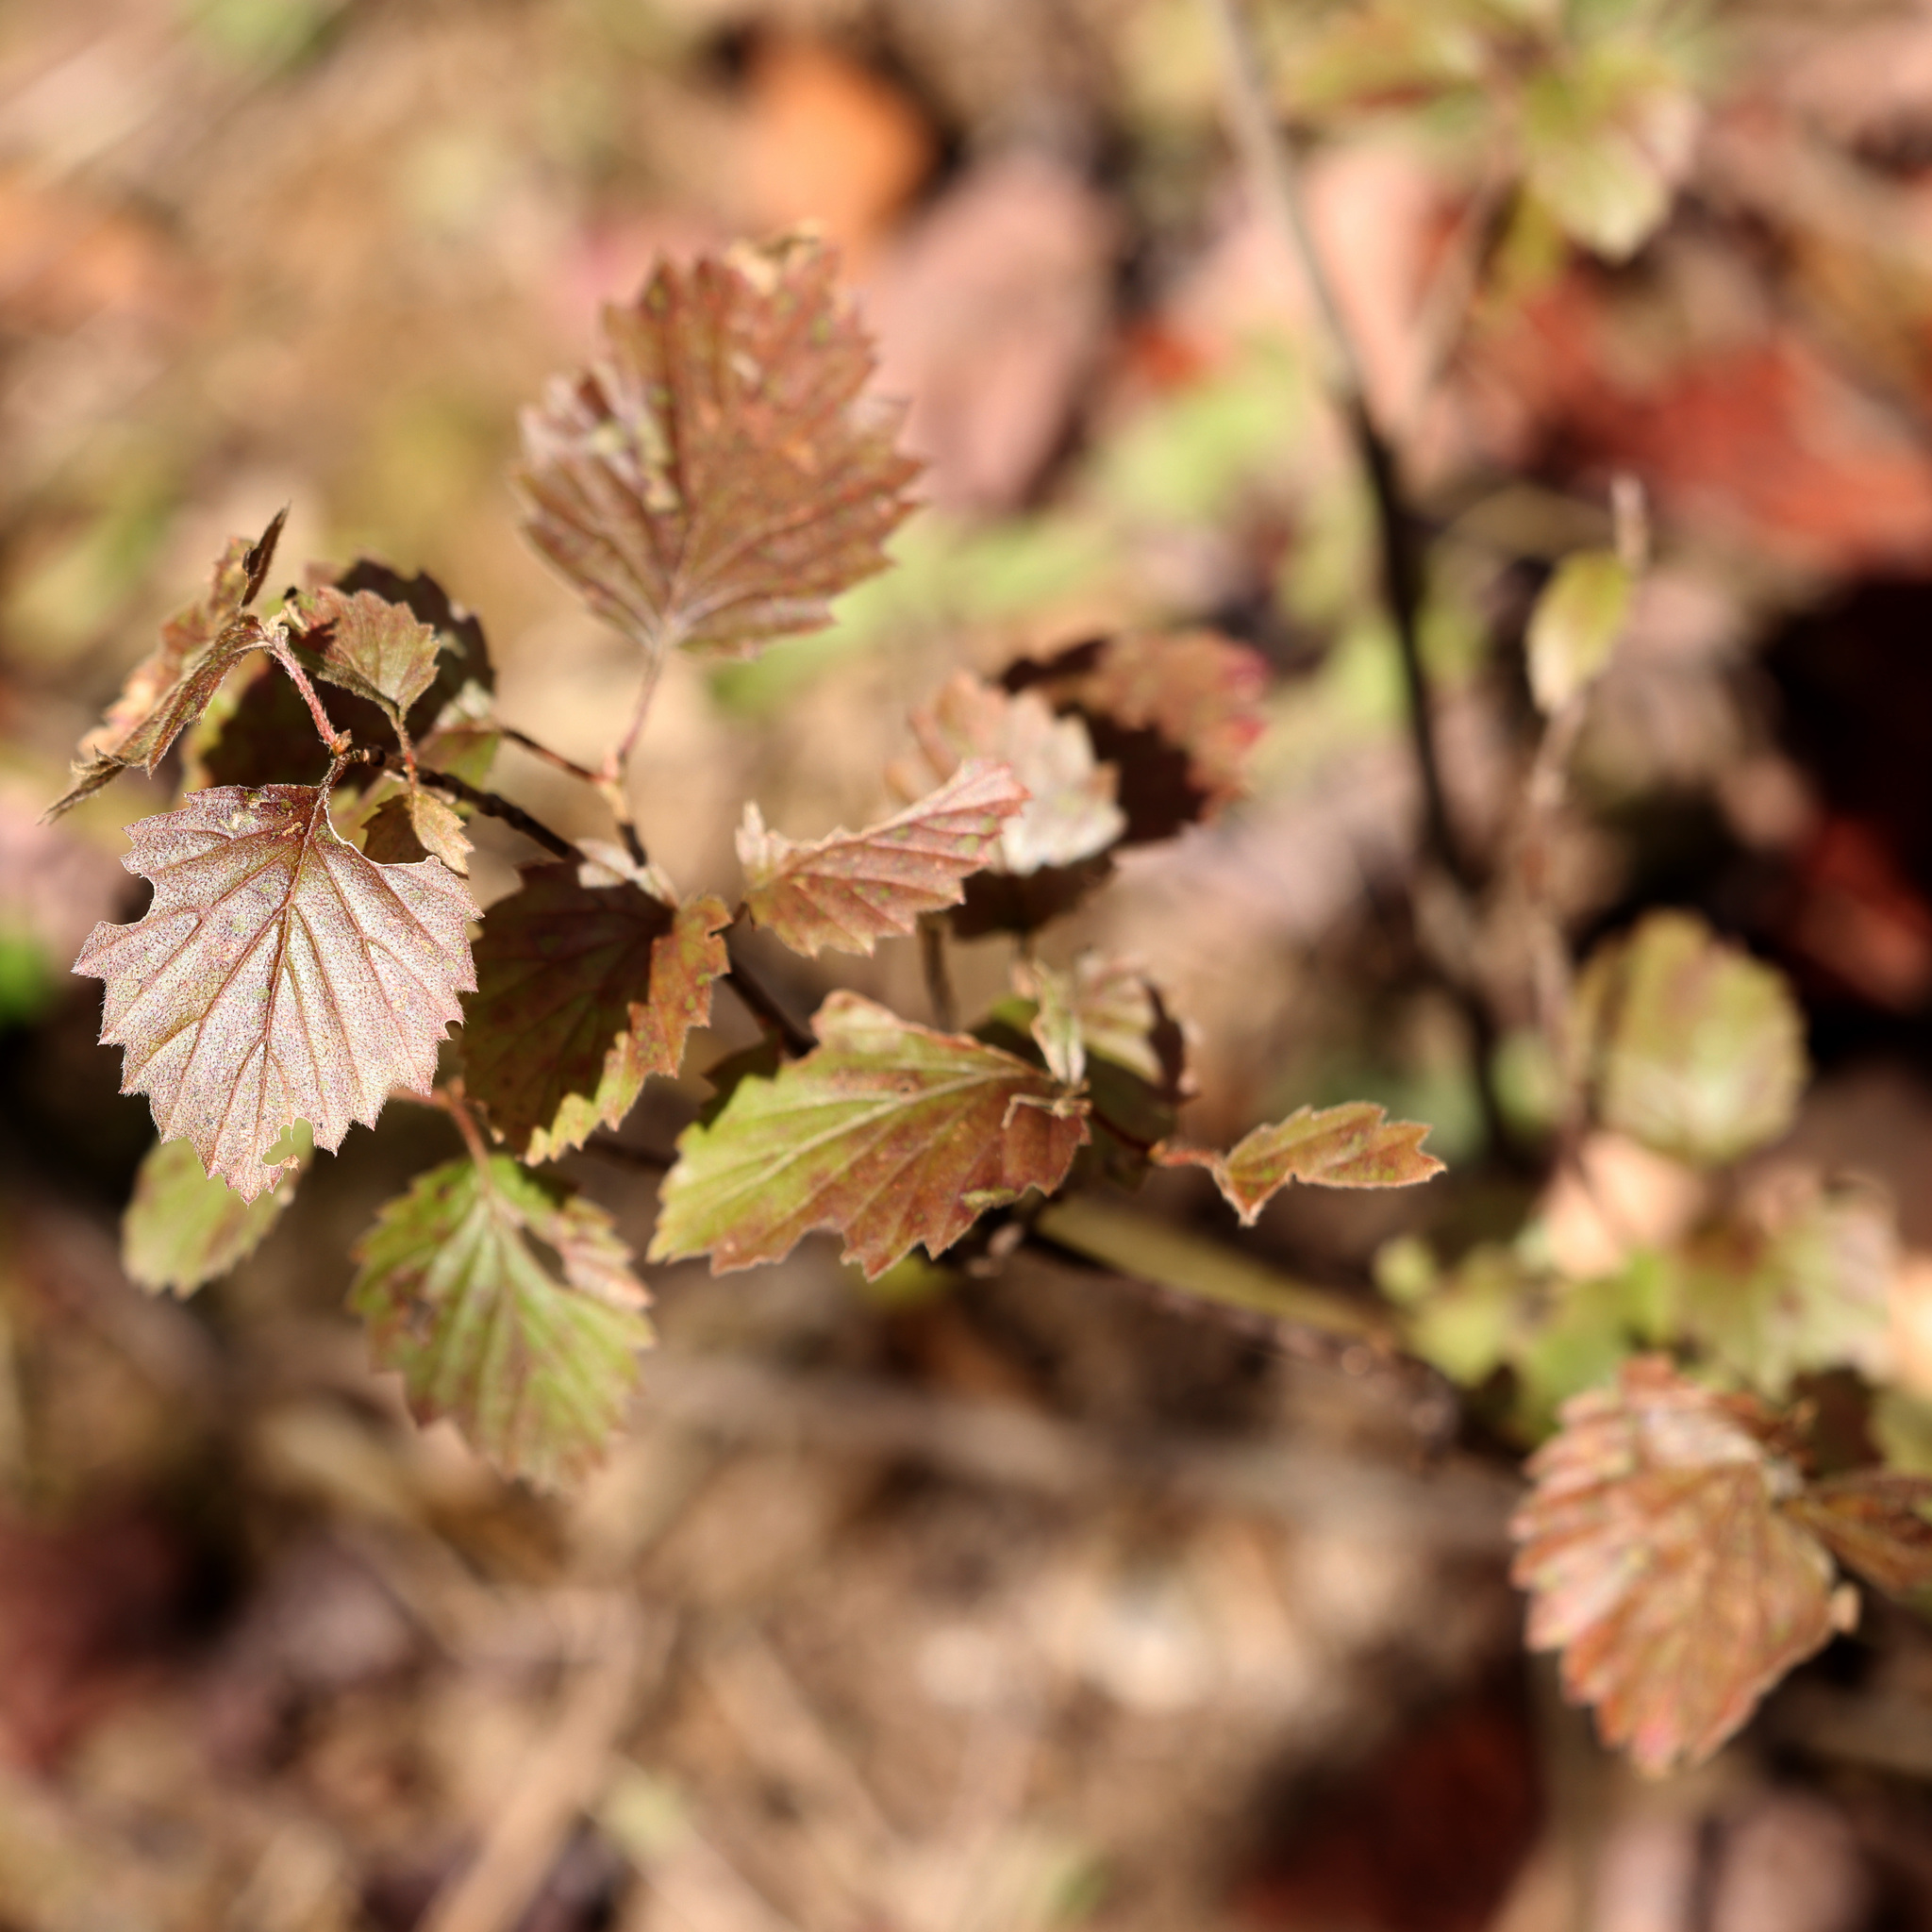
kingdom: Plantae
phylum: Tracheophyta
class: Magnoliopsida
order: Dipsacales
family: Viburnaceae
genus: Viburnum
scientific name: Viburnum recognitum
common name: Northern arrow-wood
